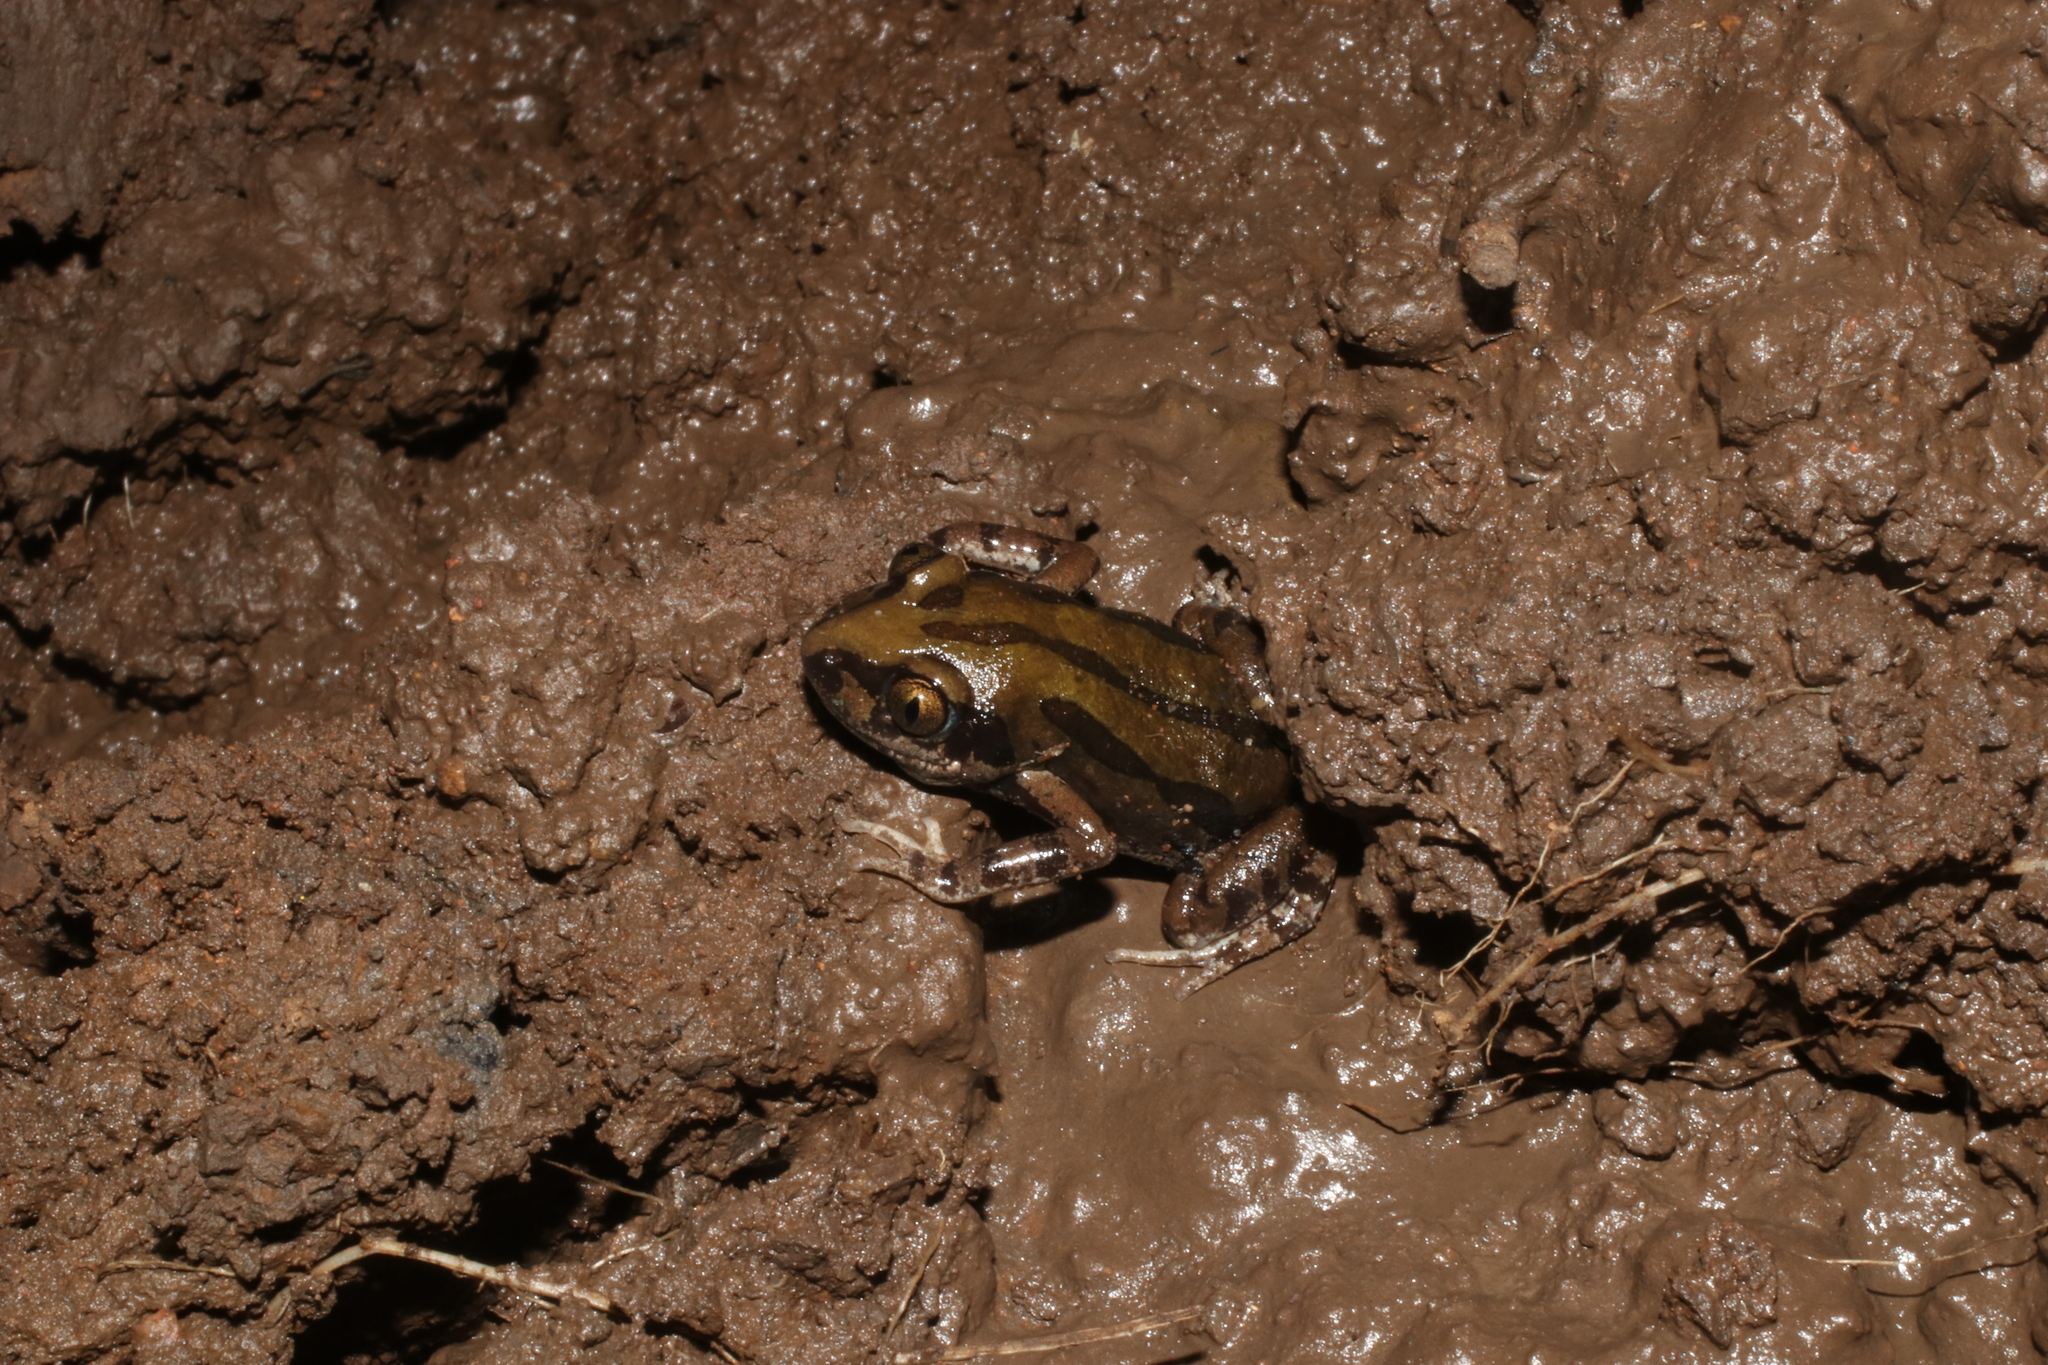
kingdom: Animalia
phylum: Chordata
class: Amphibia
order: Anura
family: Hyperoliidae
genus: Kassina
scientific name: Kassina senegalensis
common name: Senegal land frog
